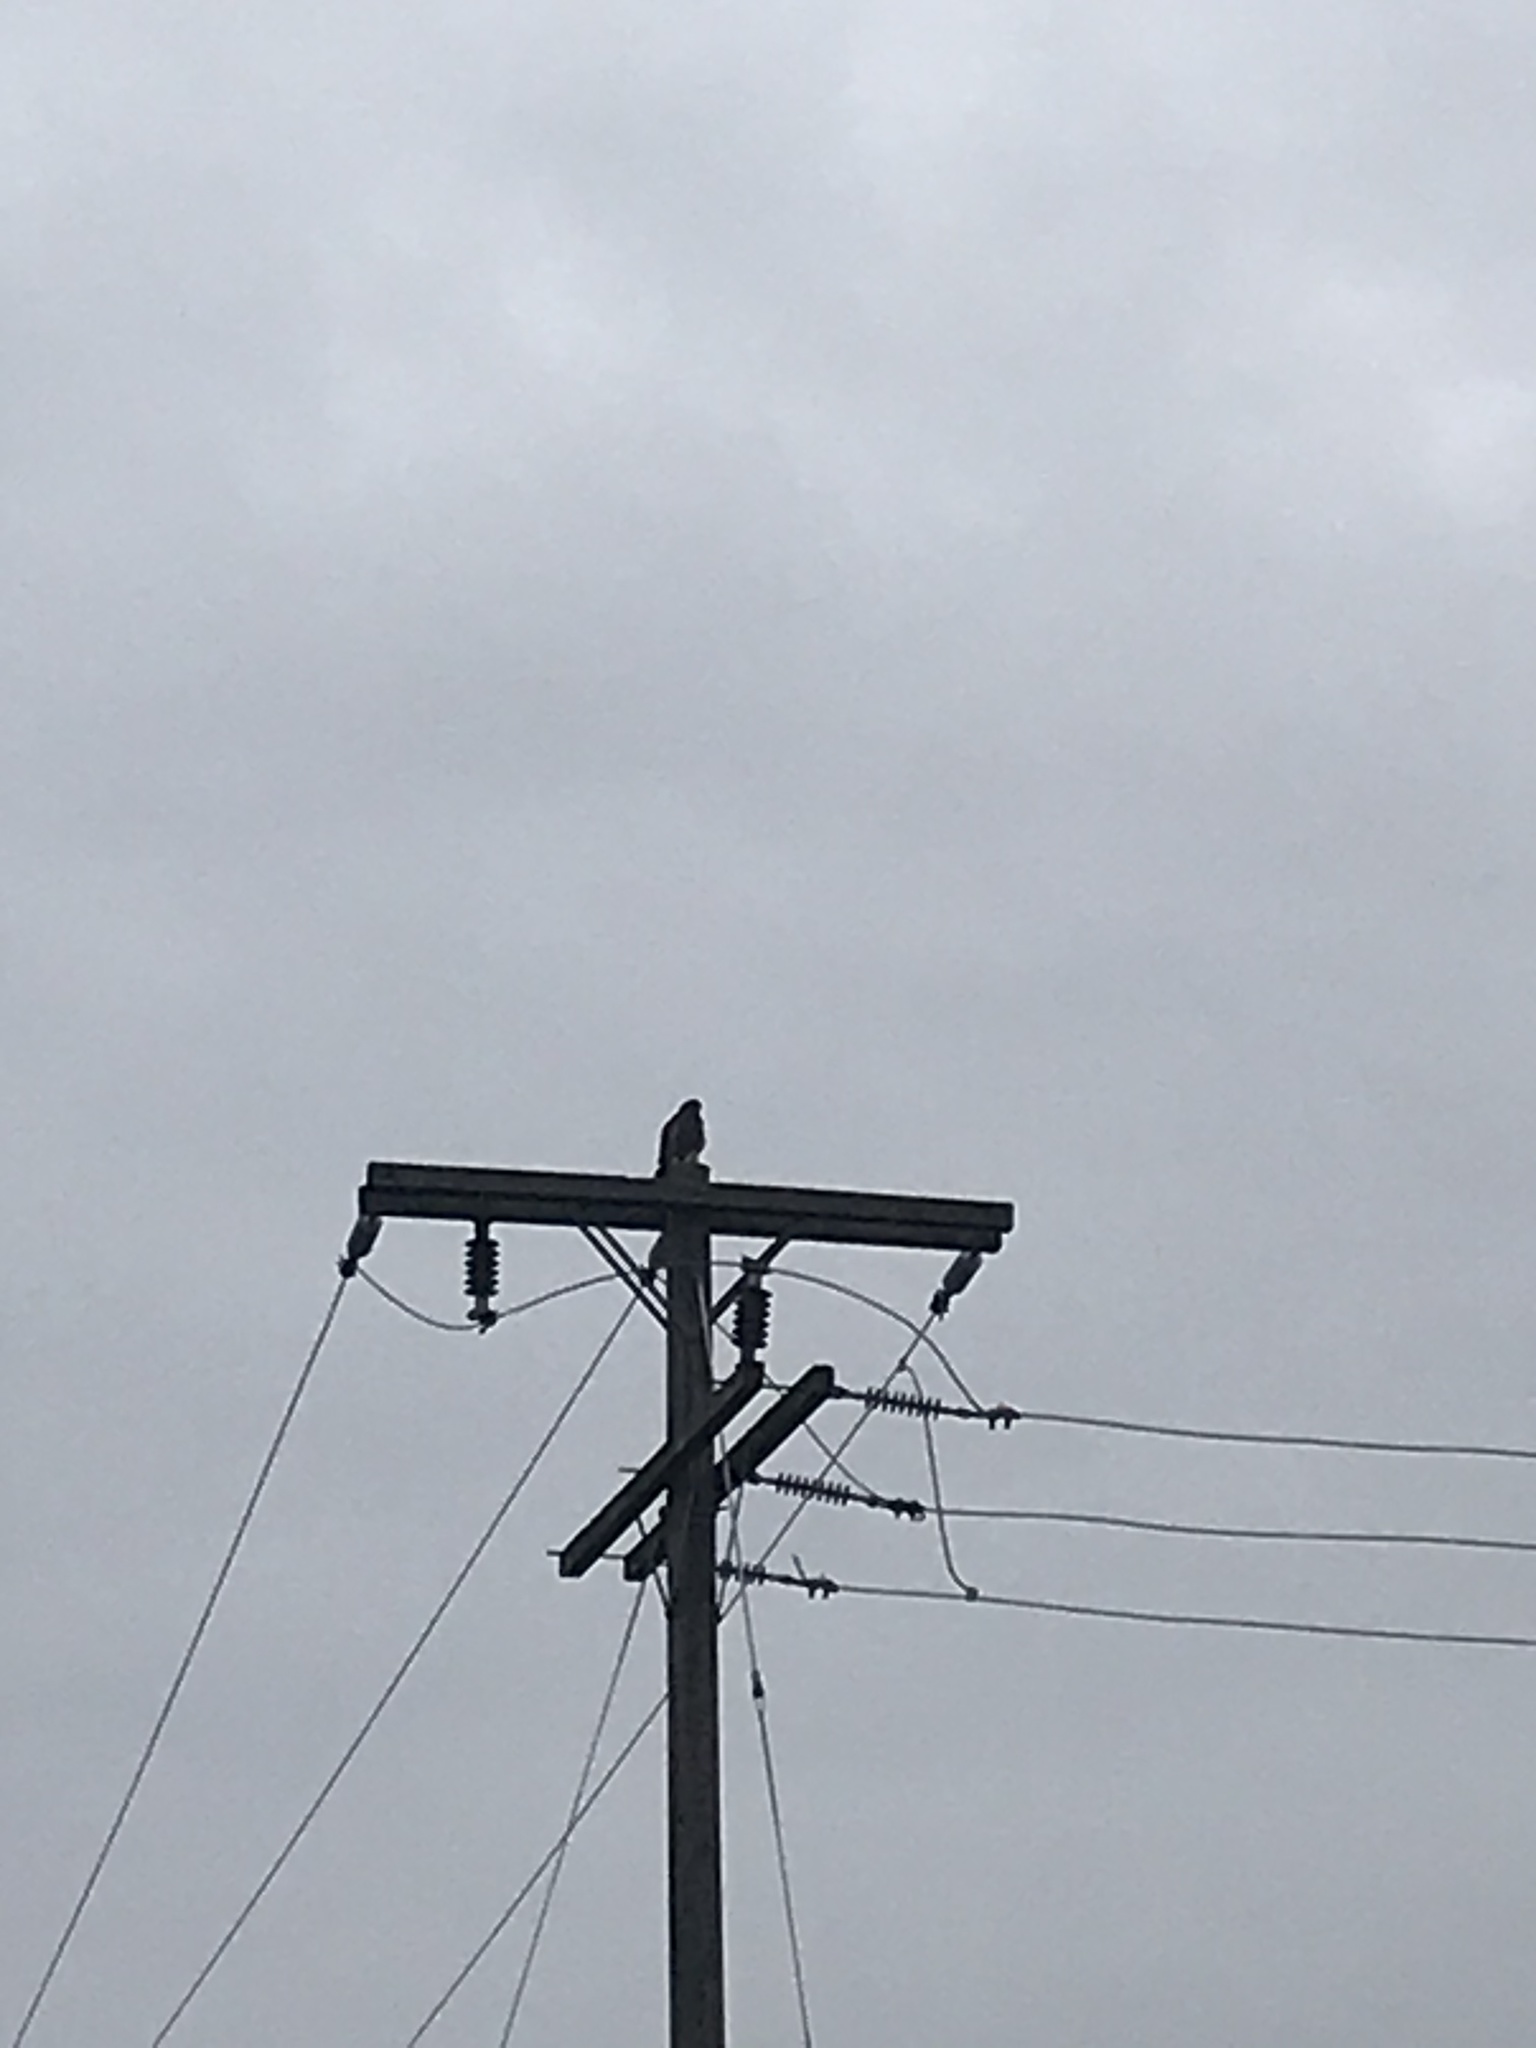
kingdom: Animalia
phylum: Chordata
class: Aves
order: Accipitriformes
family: Accipitridae
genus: Buteo
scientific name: Buteo jamaicensis
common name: Red-tailed hawk
